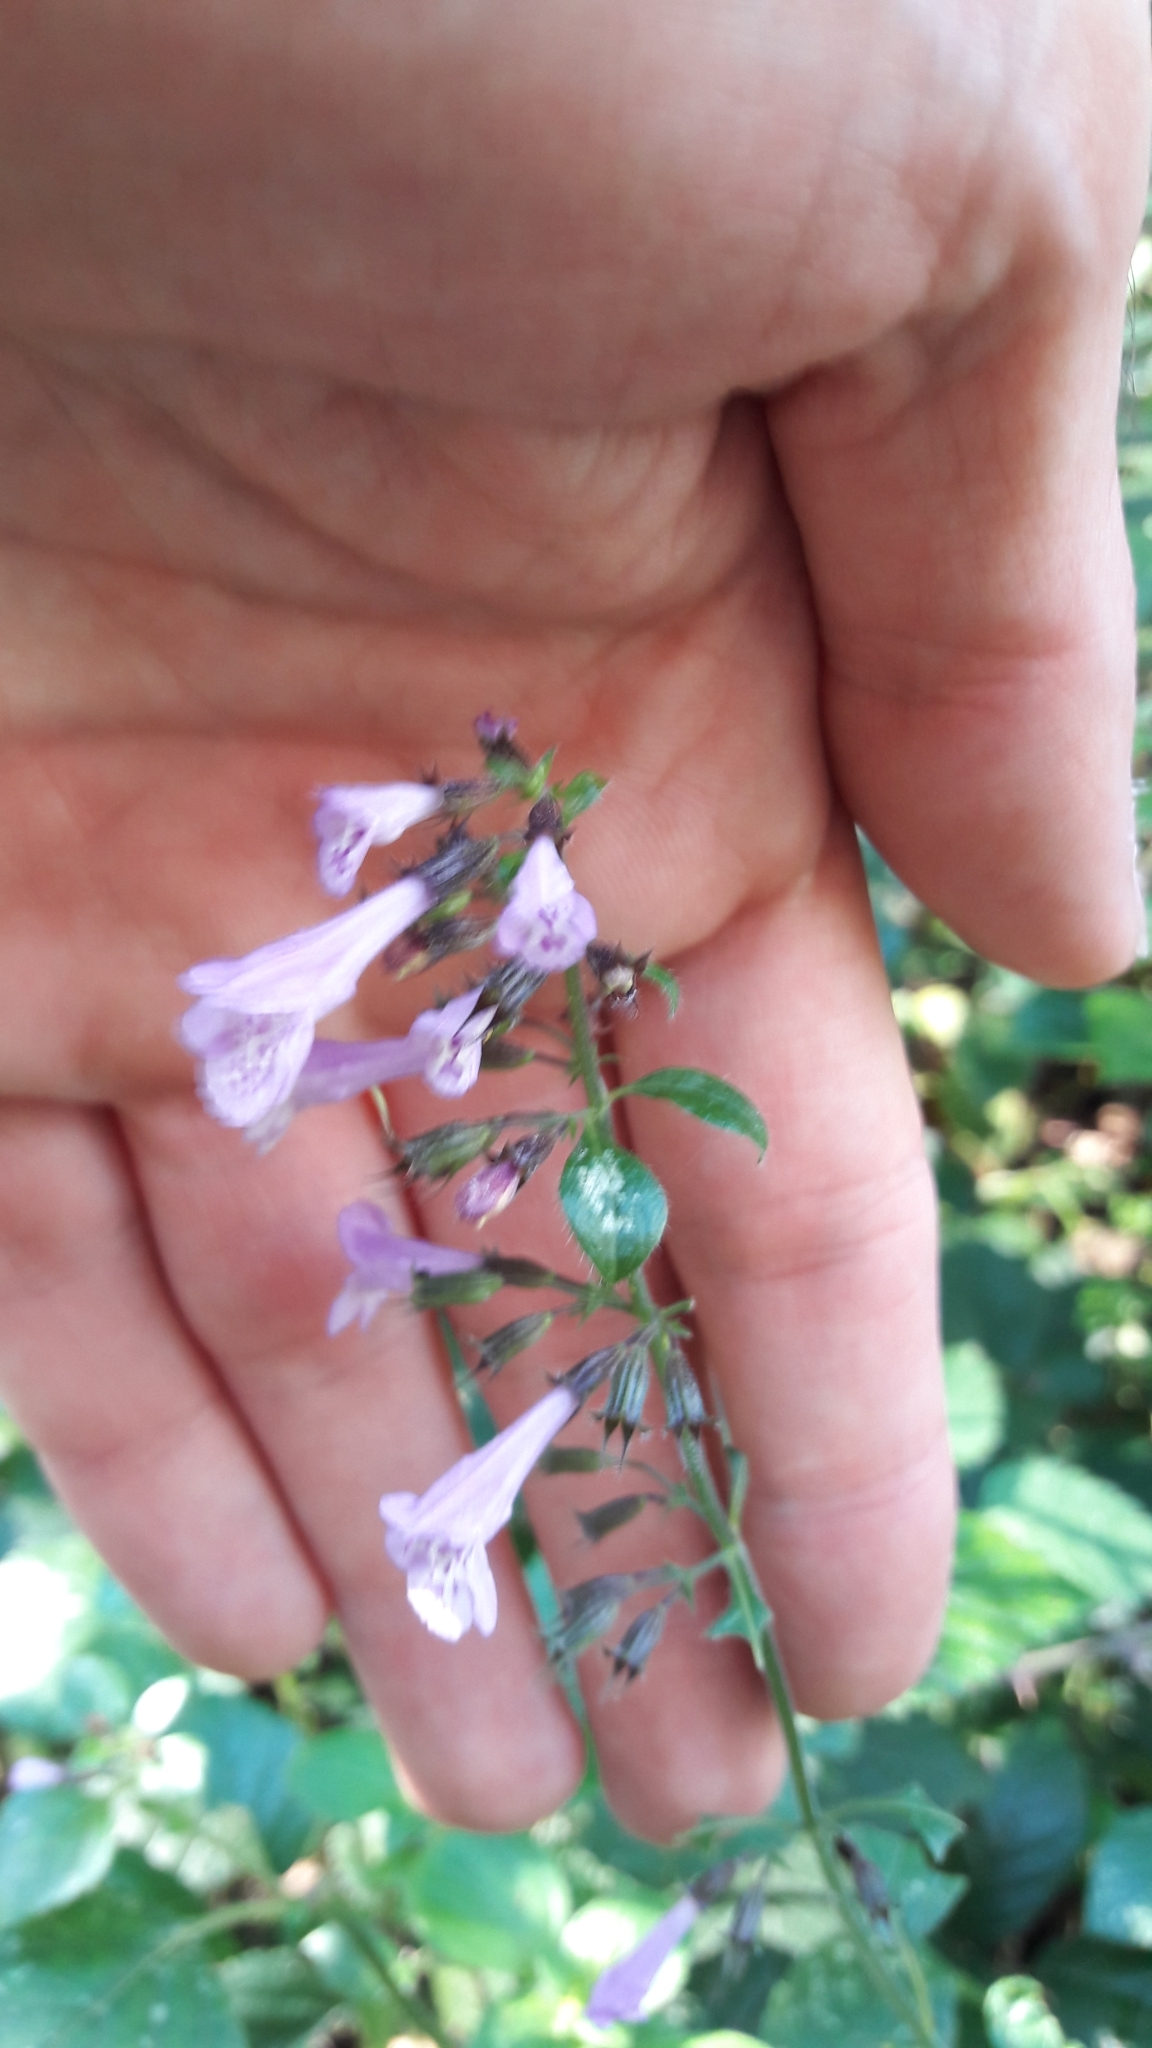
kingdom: Plantae
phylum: Tracheophyta
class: Magnoliopsida
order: Lamiales
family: Lamiaceae
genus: Clinopodium
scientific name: Clinopodium menthifolium
